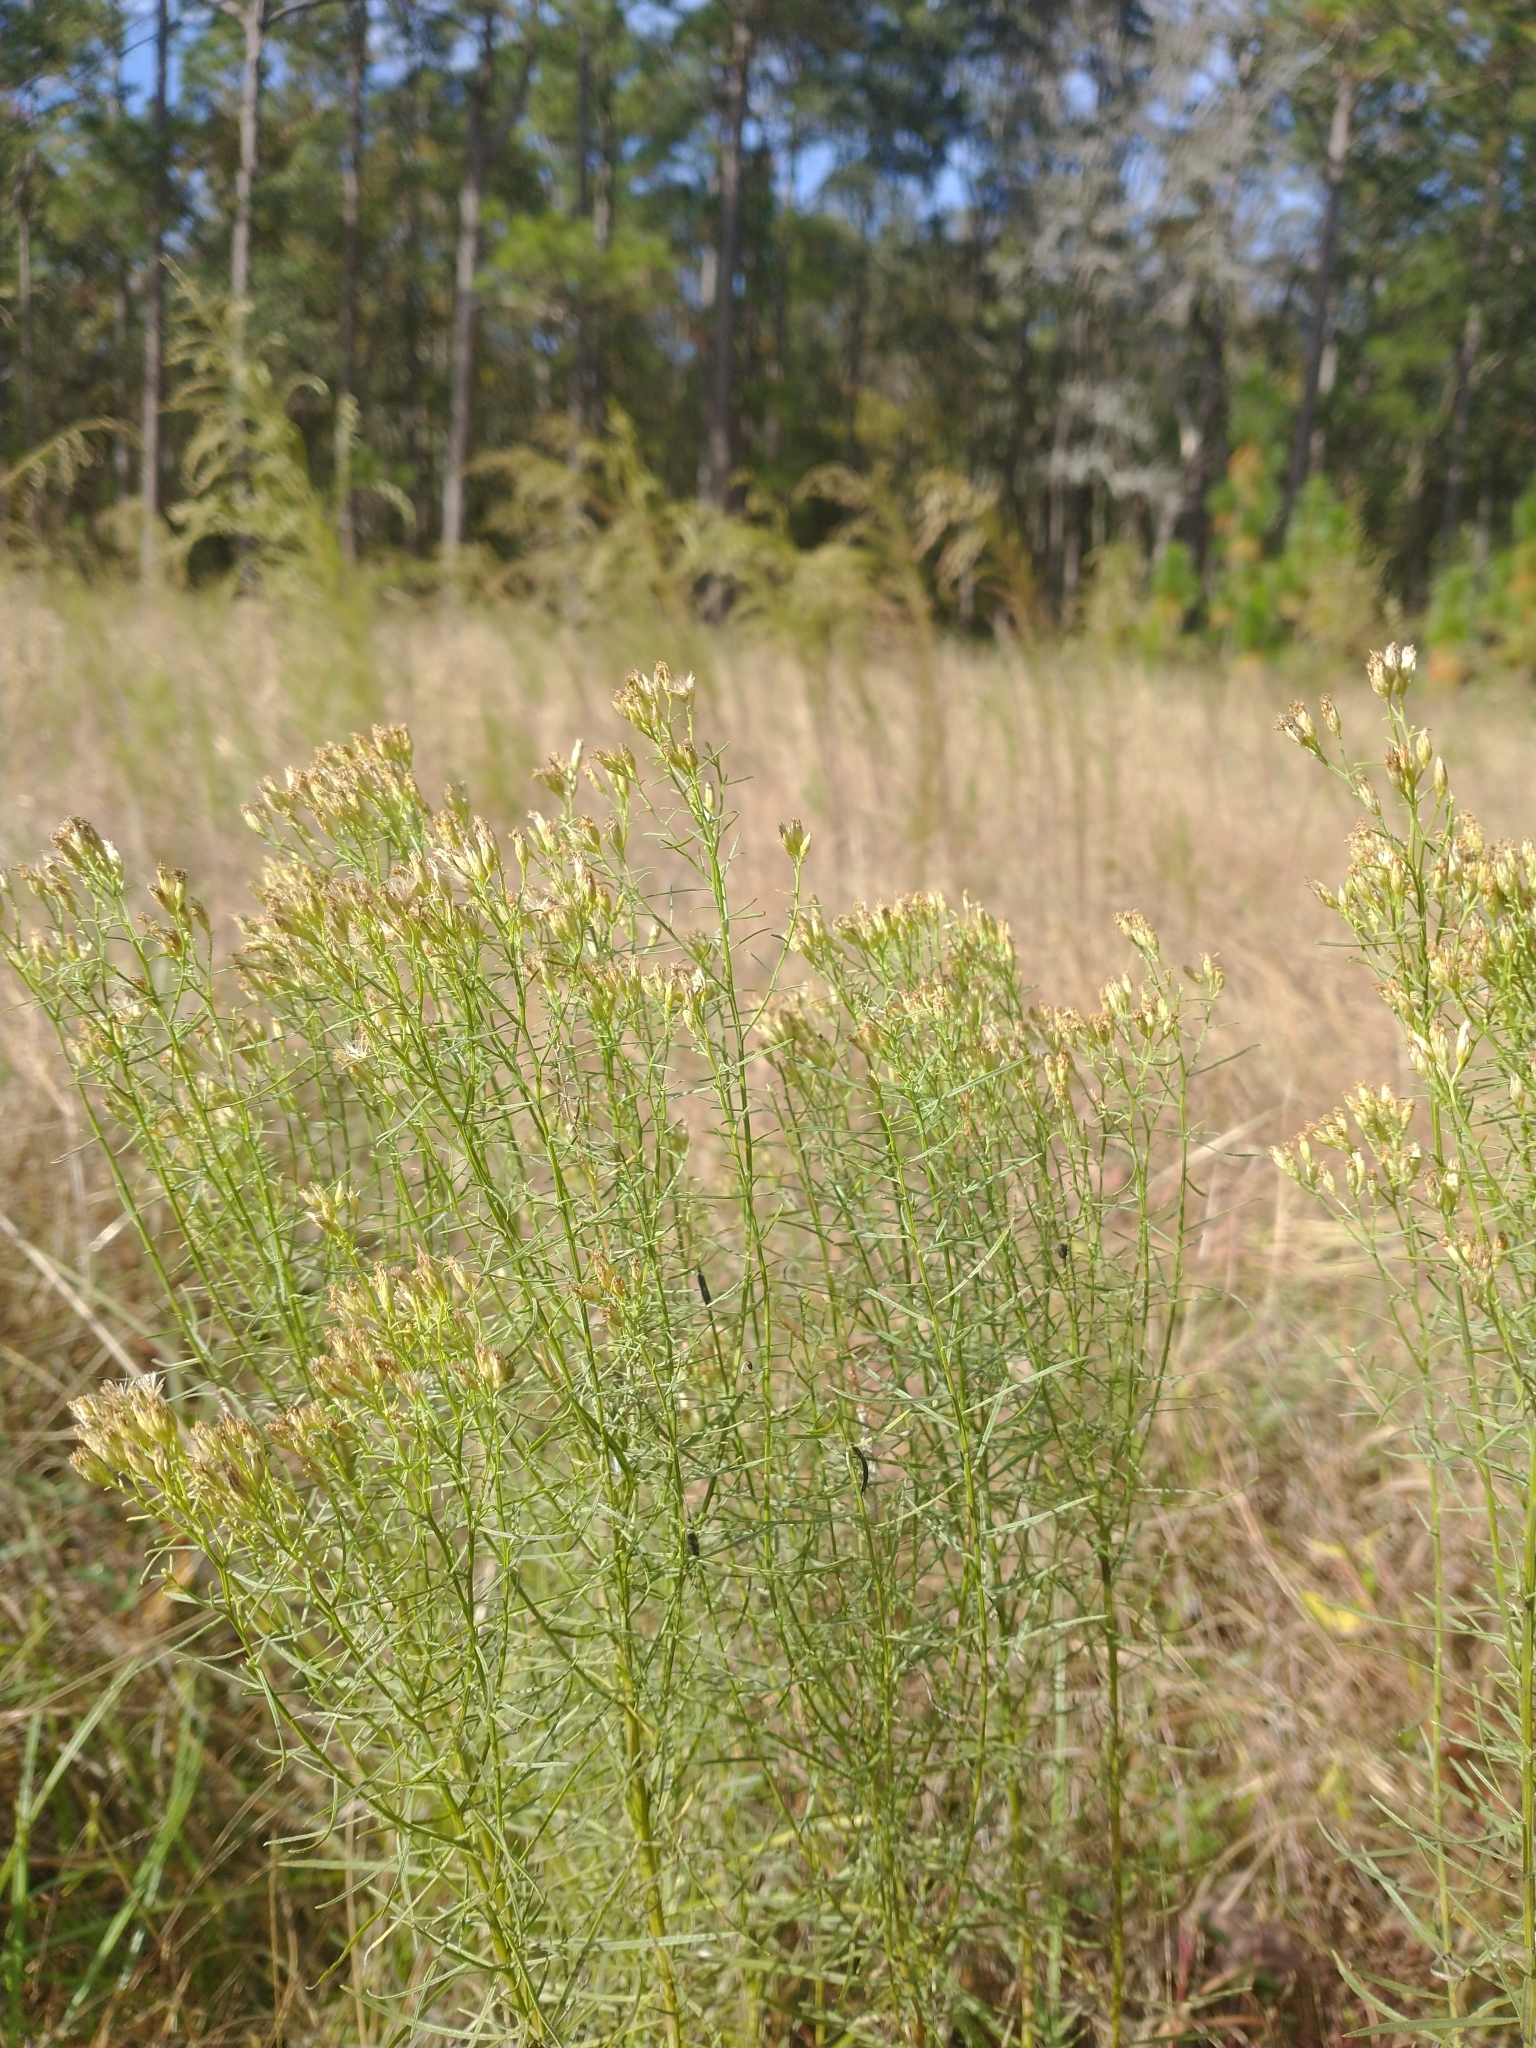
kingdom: Plantae
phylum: Tracheophyta
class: Magnoliopsida
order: Asterales
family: Asteraceae
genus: Euthamia
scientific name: Euthamia caroliniana
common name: Coastal plain goldentop
